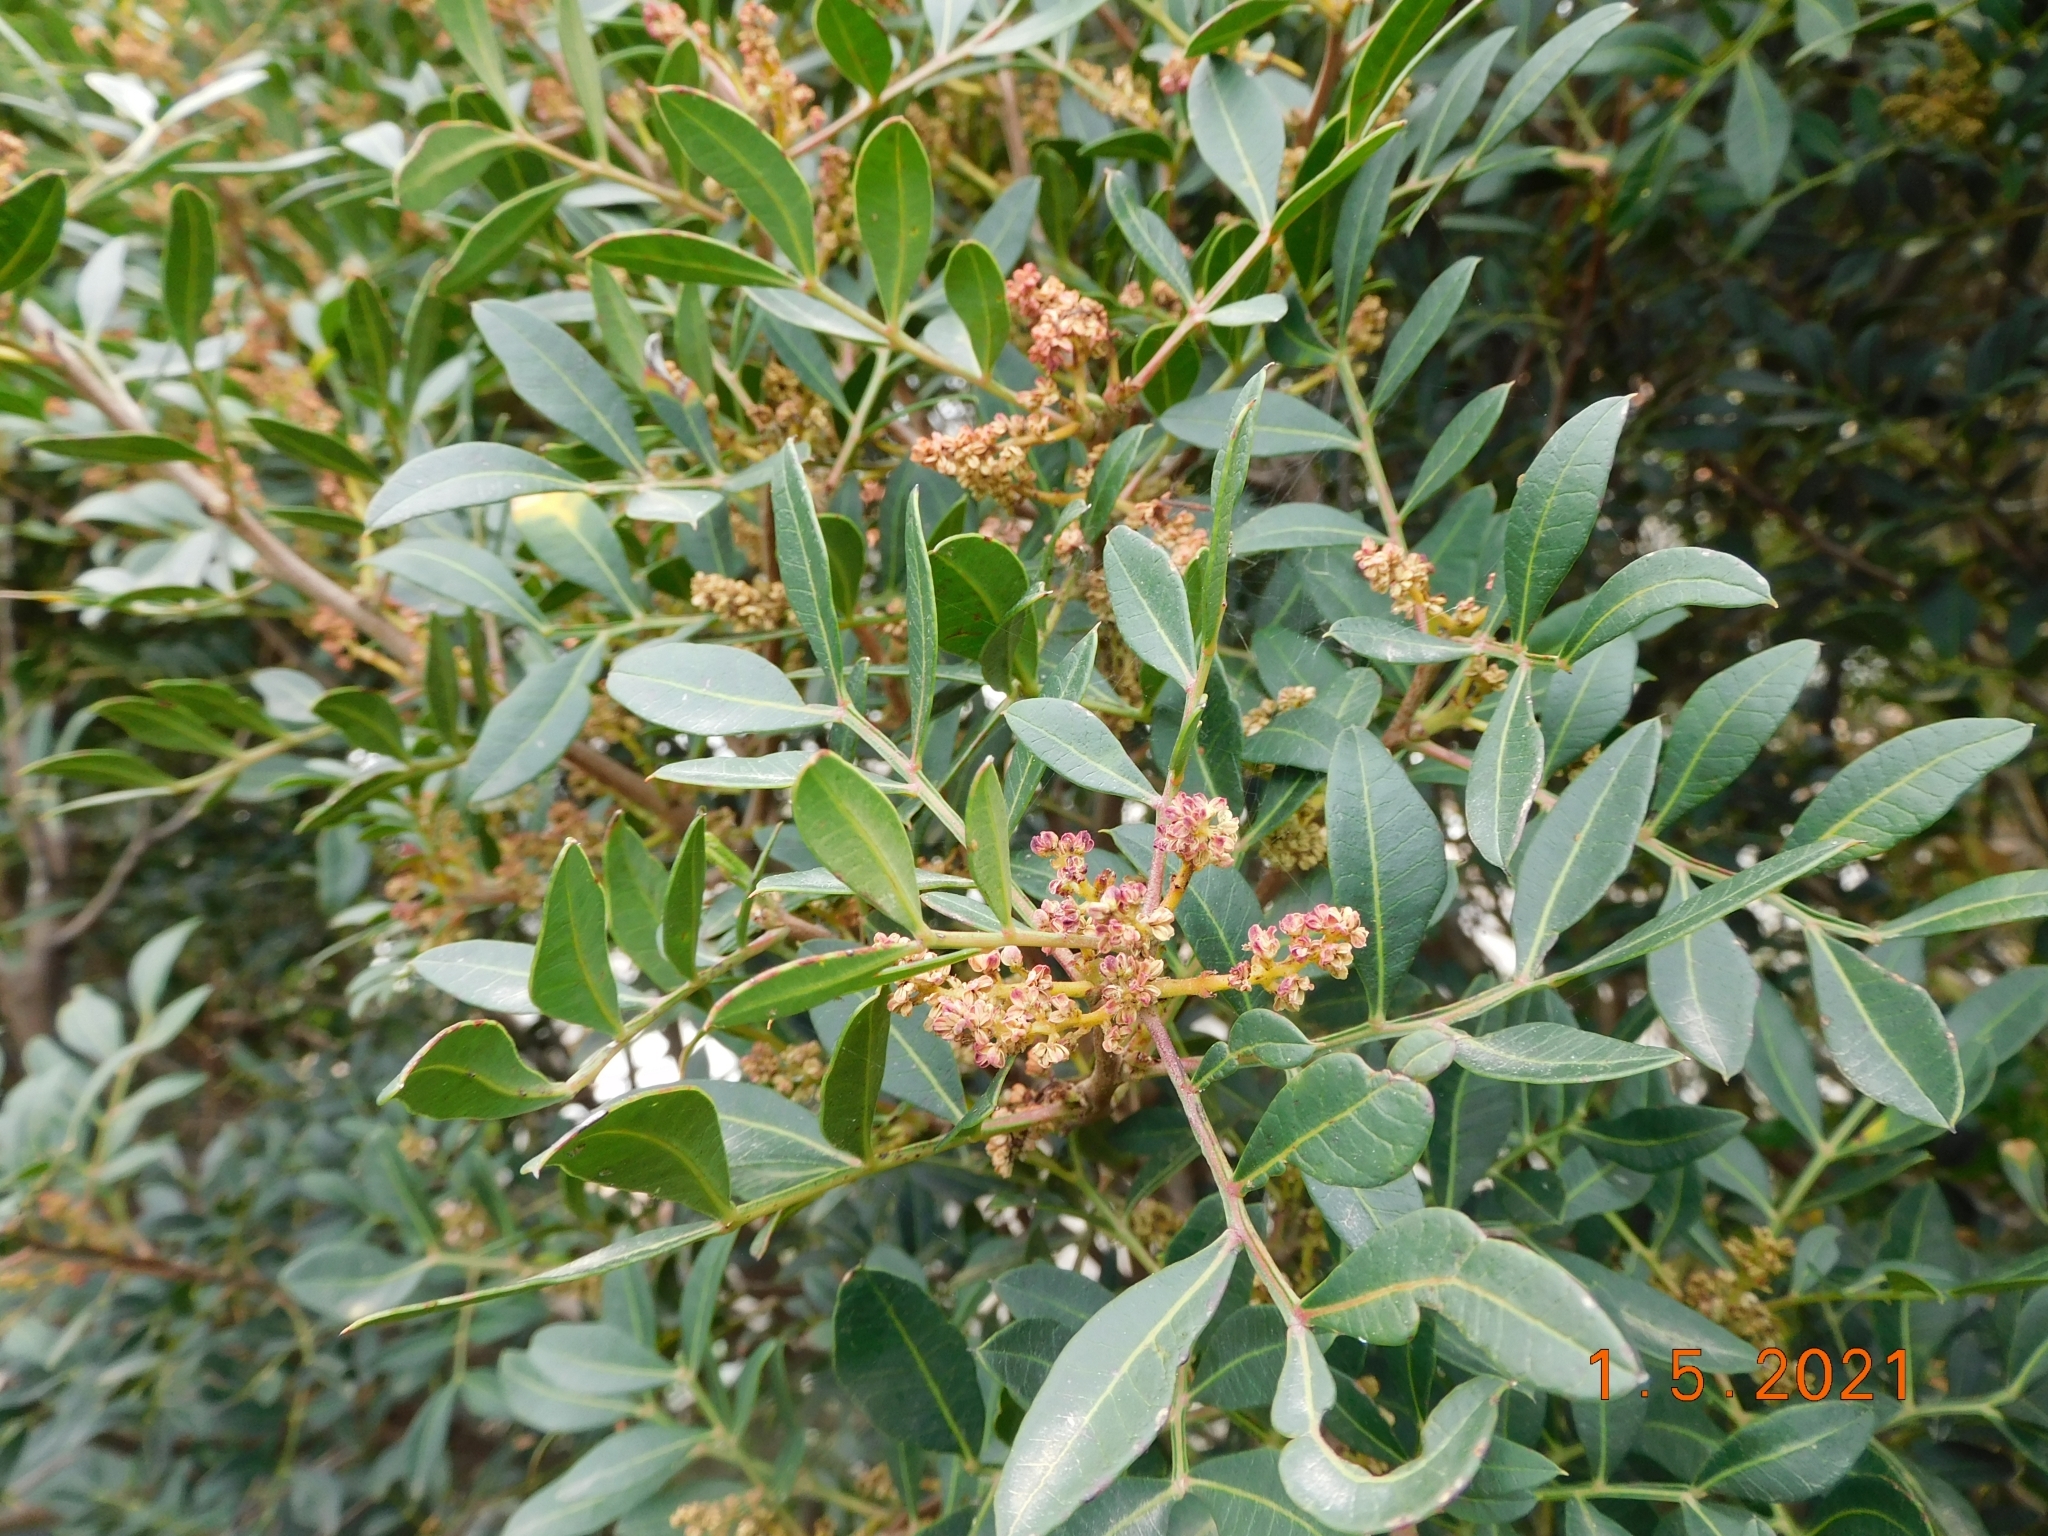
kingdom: Plantae
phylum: Tracheophyta
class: Magnoliopsida
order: Sapindales
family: Anacardiaceae
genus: Pistacia
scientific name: Pistacia lentiscus
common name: Lentisk
